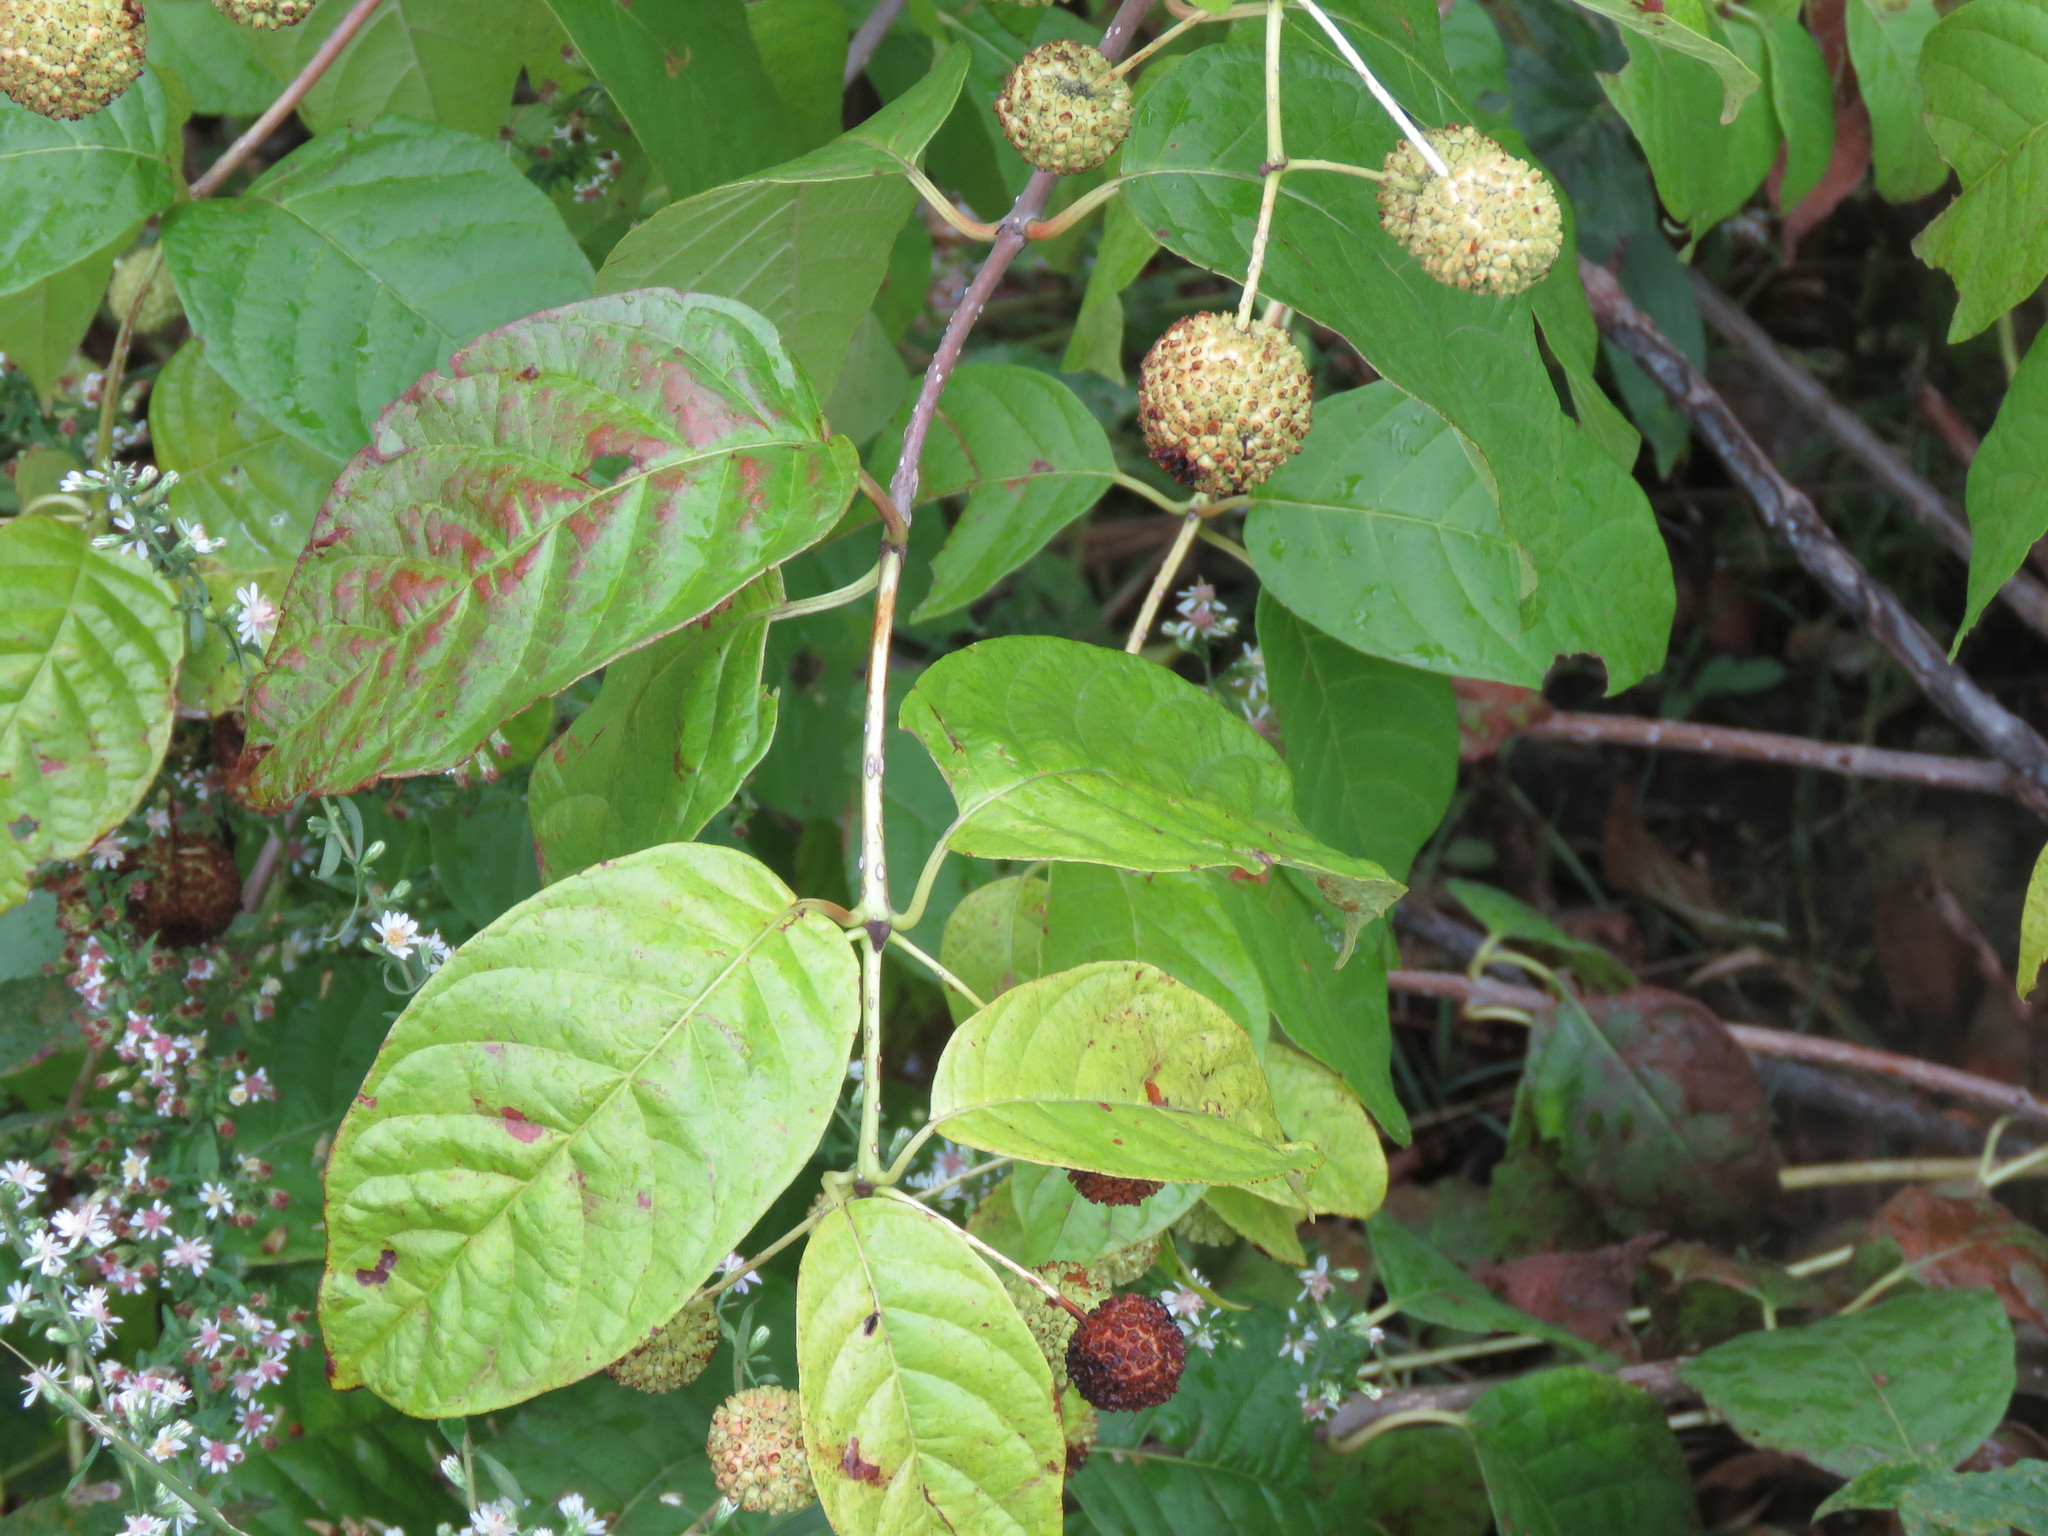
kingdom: Plantae
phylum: Tracheophyta
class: Magnoliopsida
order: Gentianales
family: Rubiaceae
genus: Cephalanthus
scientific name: Cephalanthus occidentalis
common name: Button-willow
